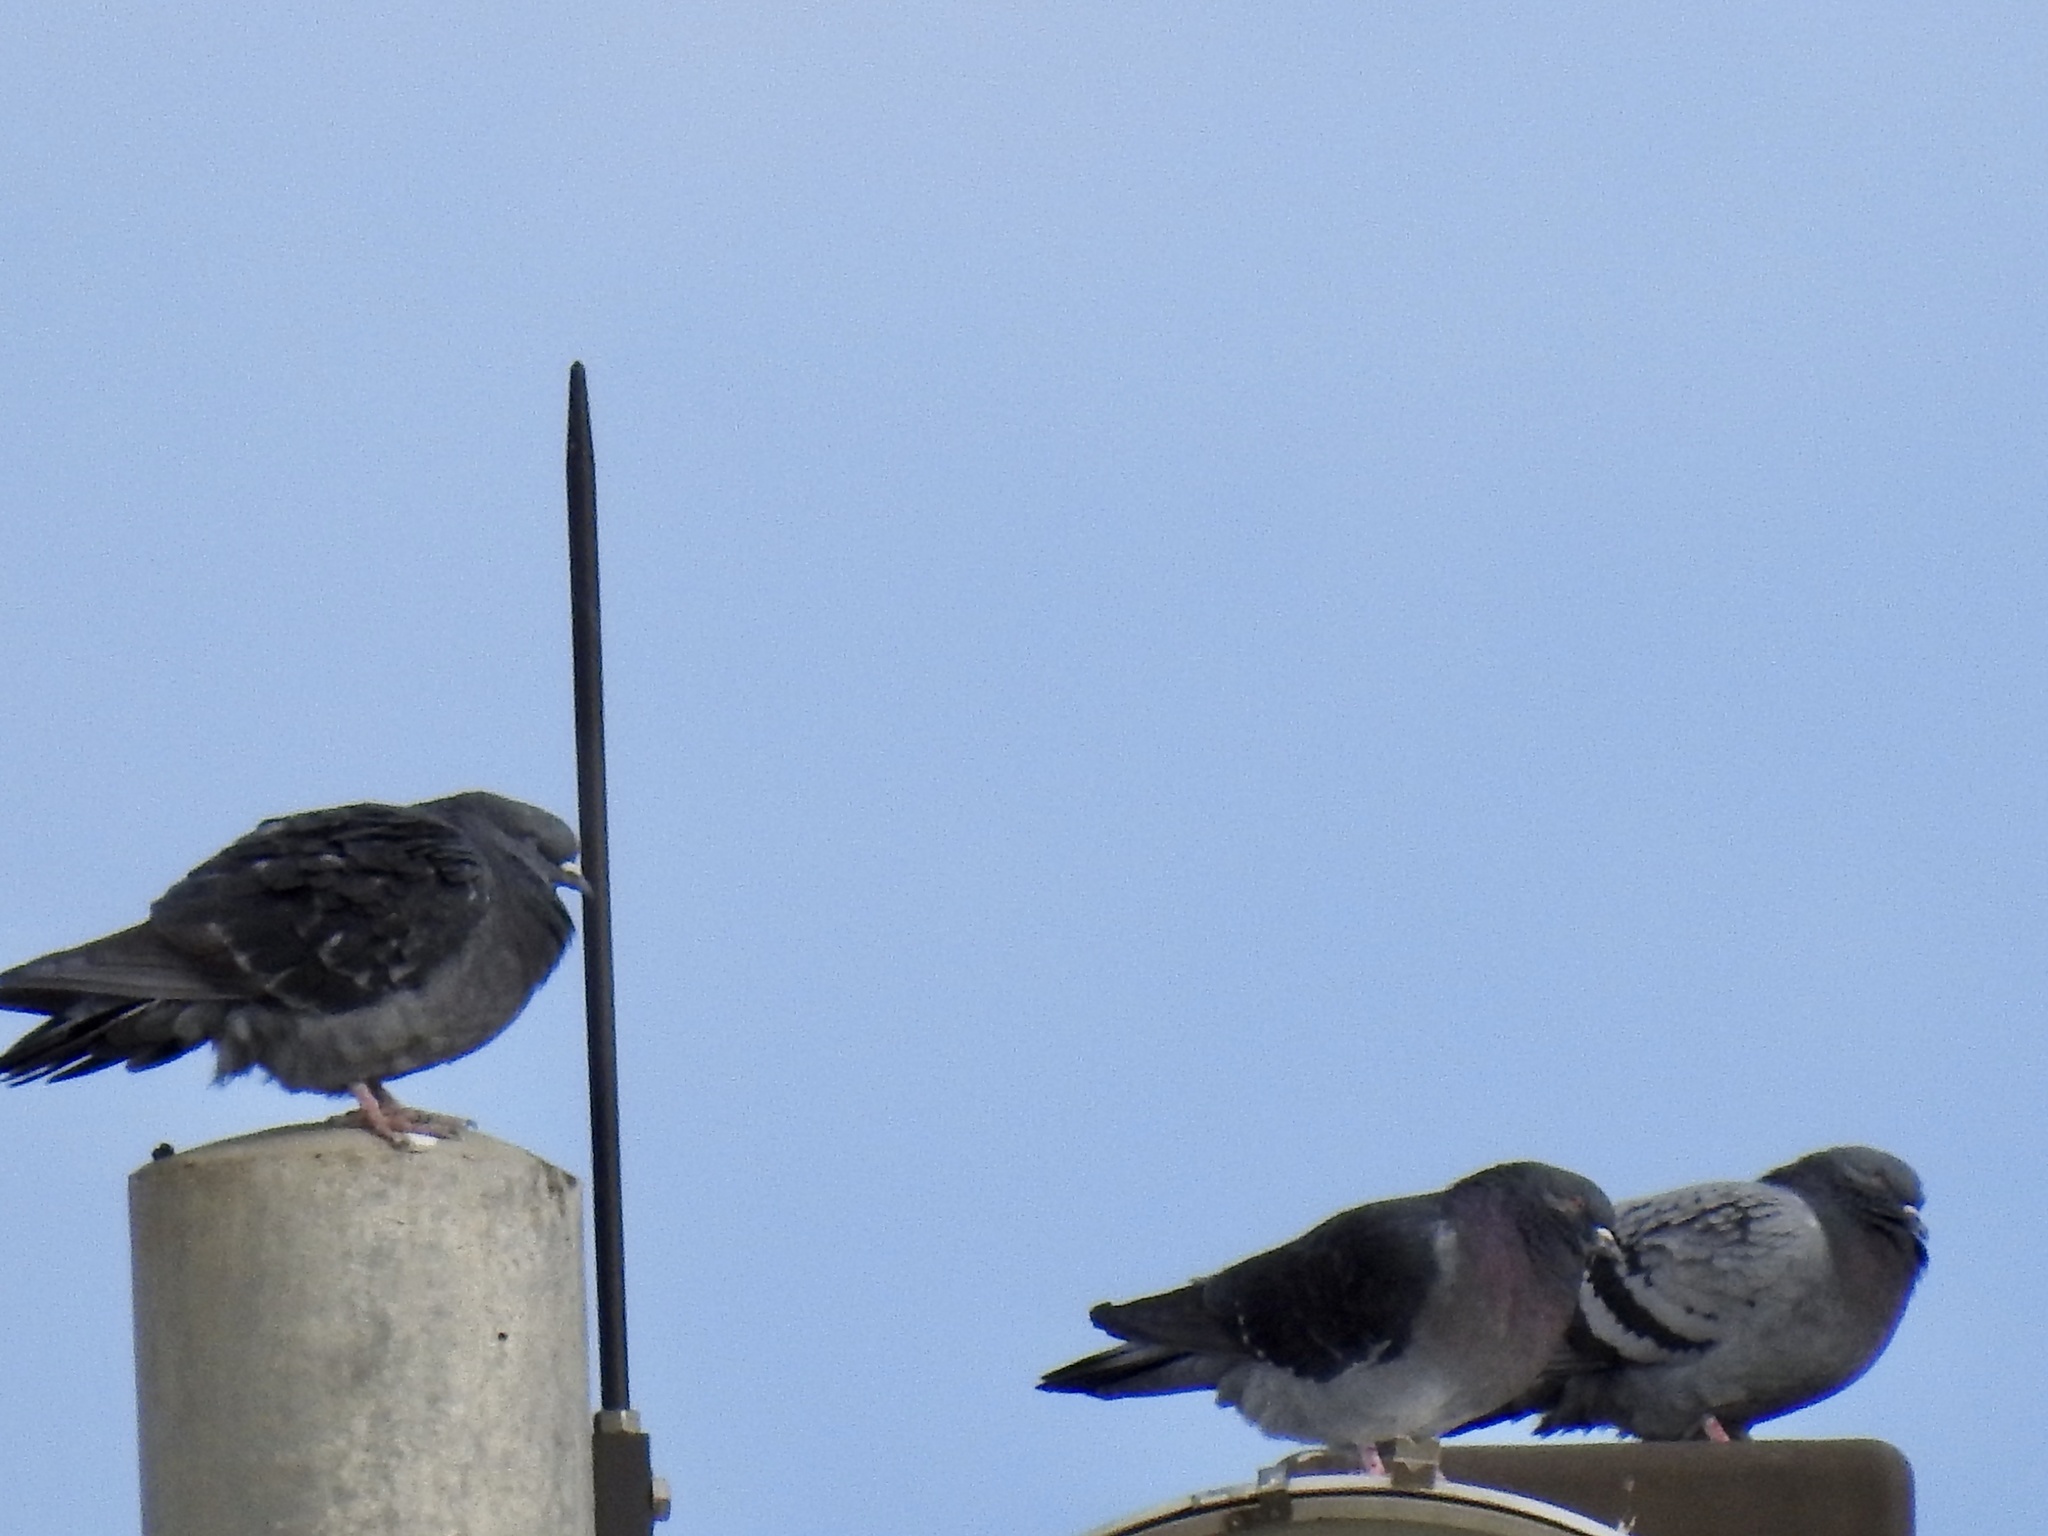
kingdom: Animalia
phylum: Chordata
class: Aves
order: Columbiformes
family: Columbidae
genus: Columba
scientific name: Columba livia
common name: Rock pigeon
